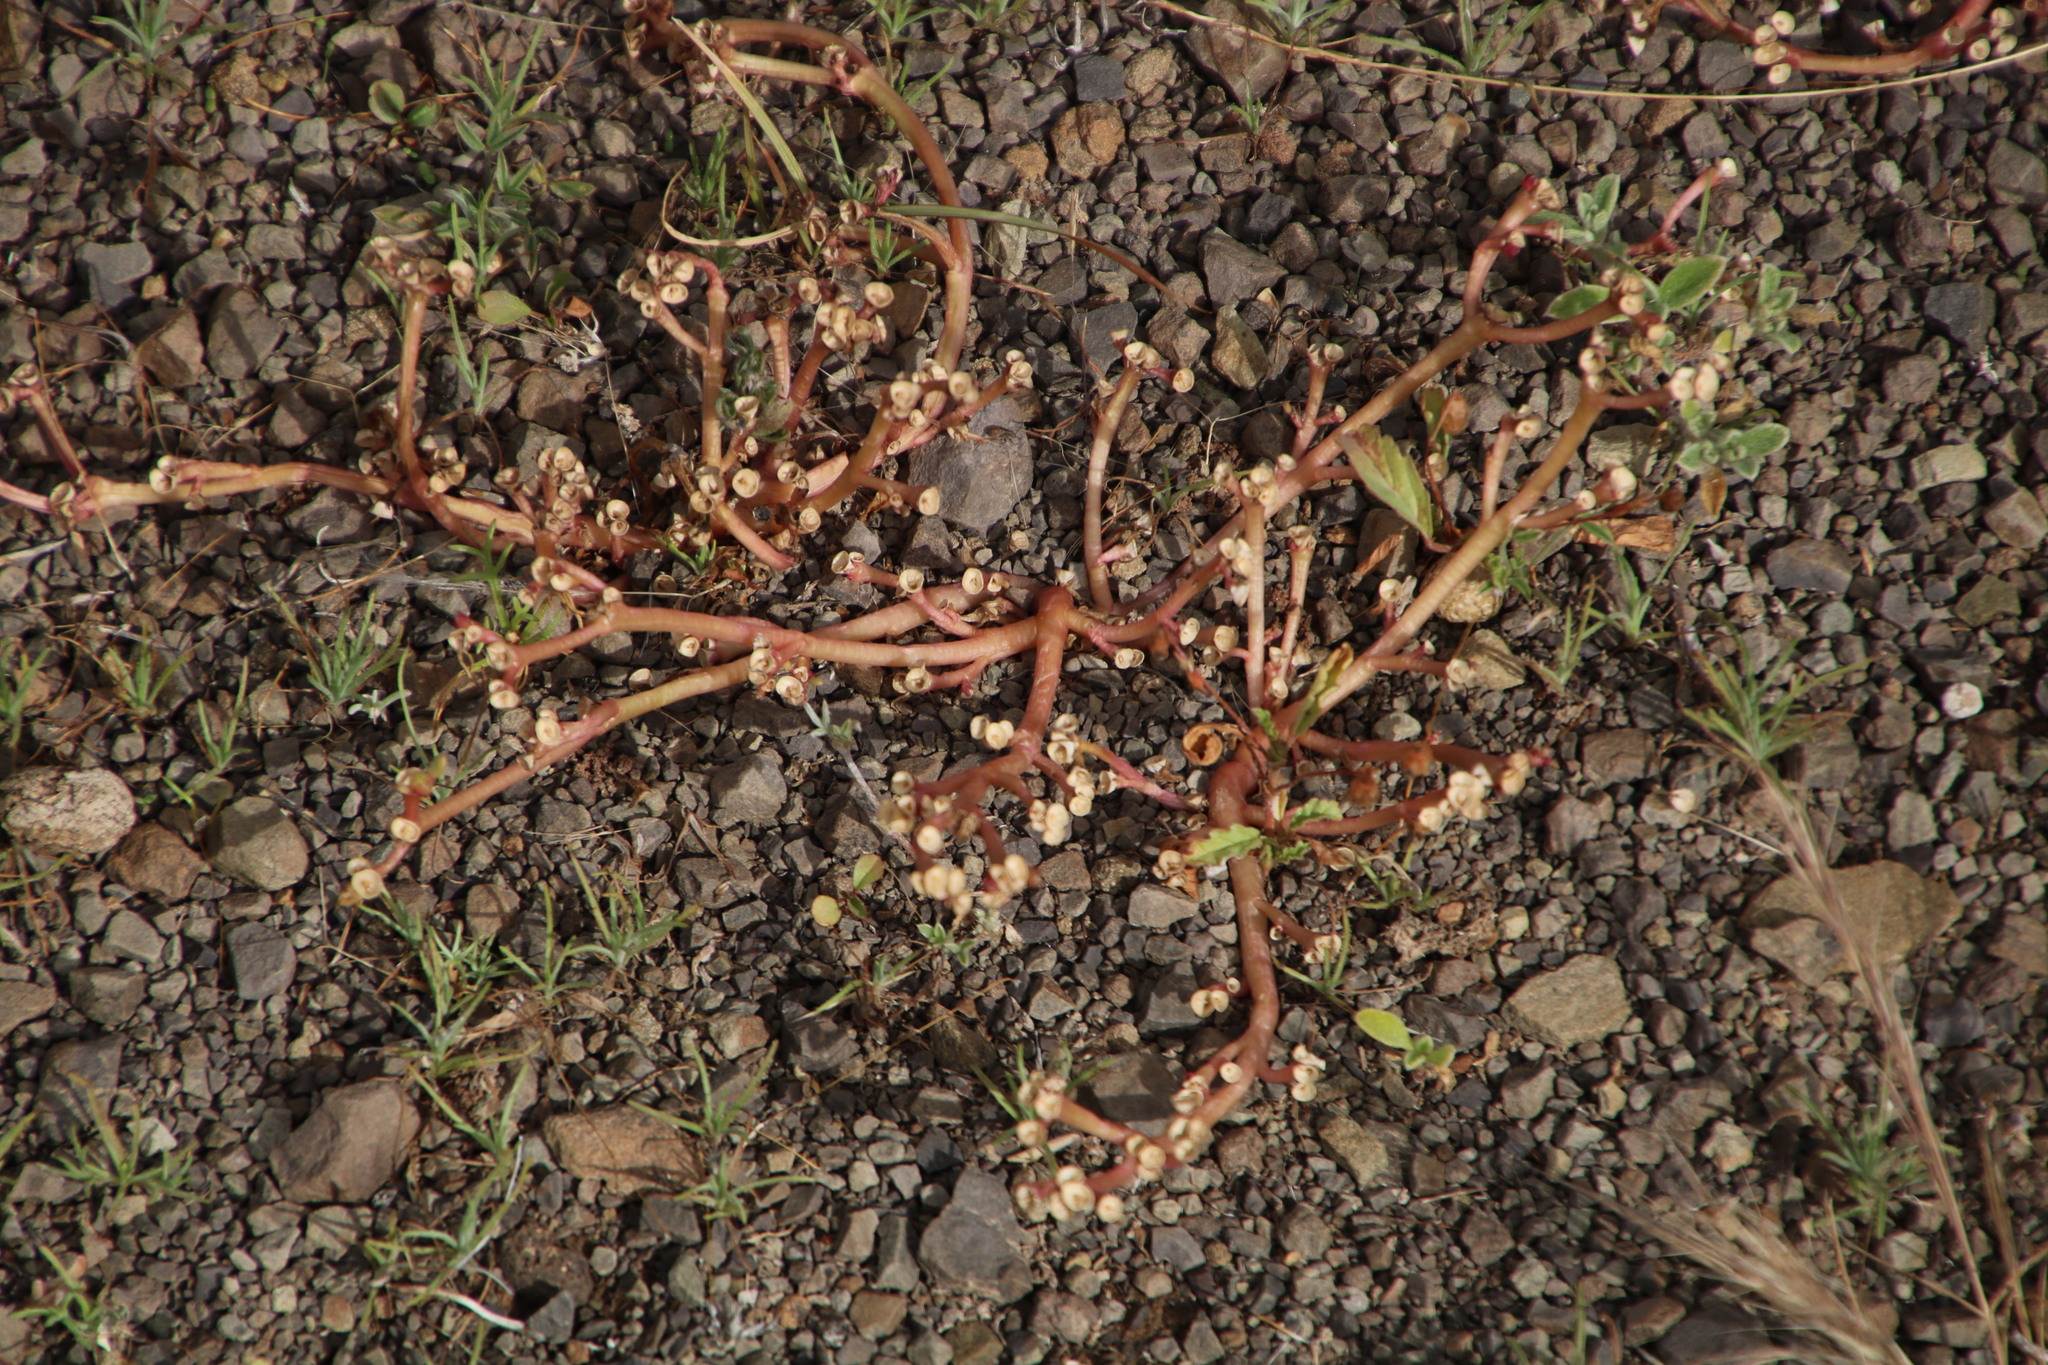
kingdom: Plantae
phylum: Tracheophyta
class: Magnoliopsida
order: Caryophyllales
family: Portulacaceae
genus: Portulaca
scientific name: Portulaca oleracea
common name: Common purslane
